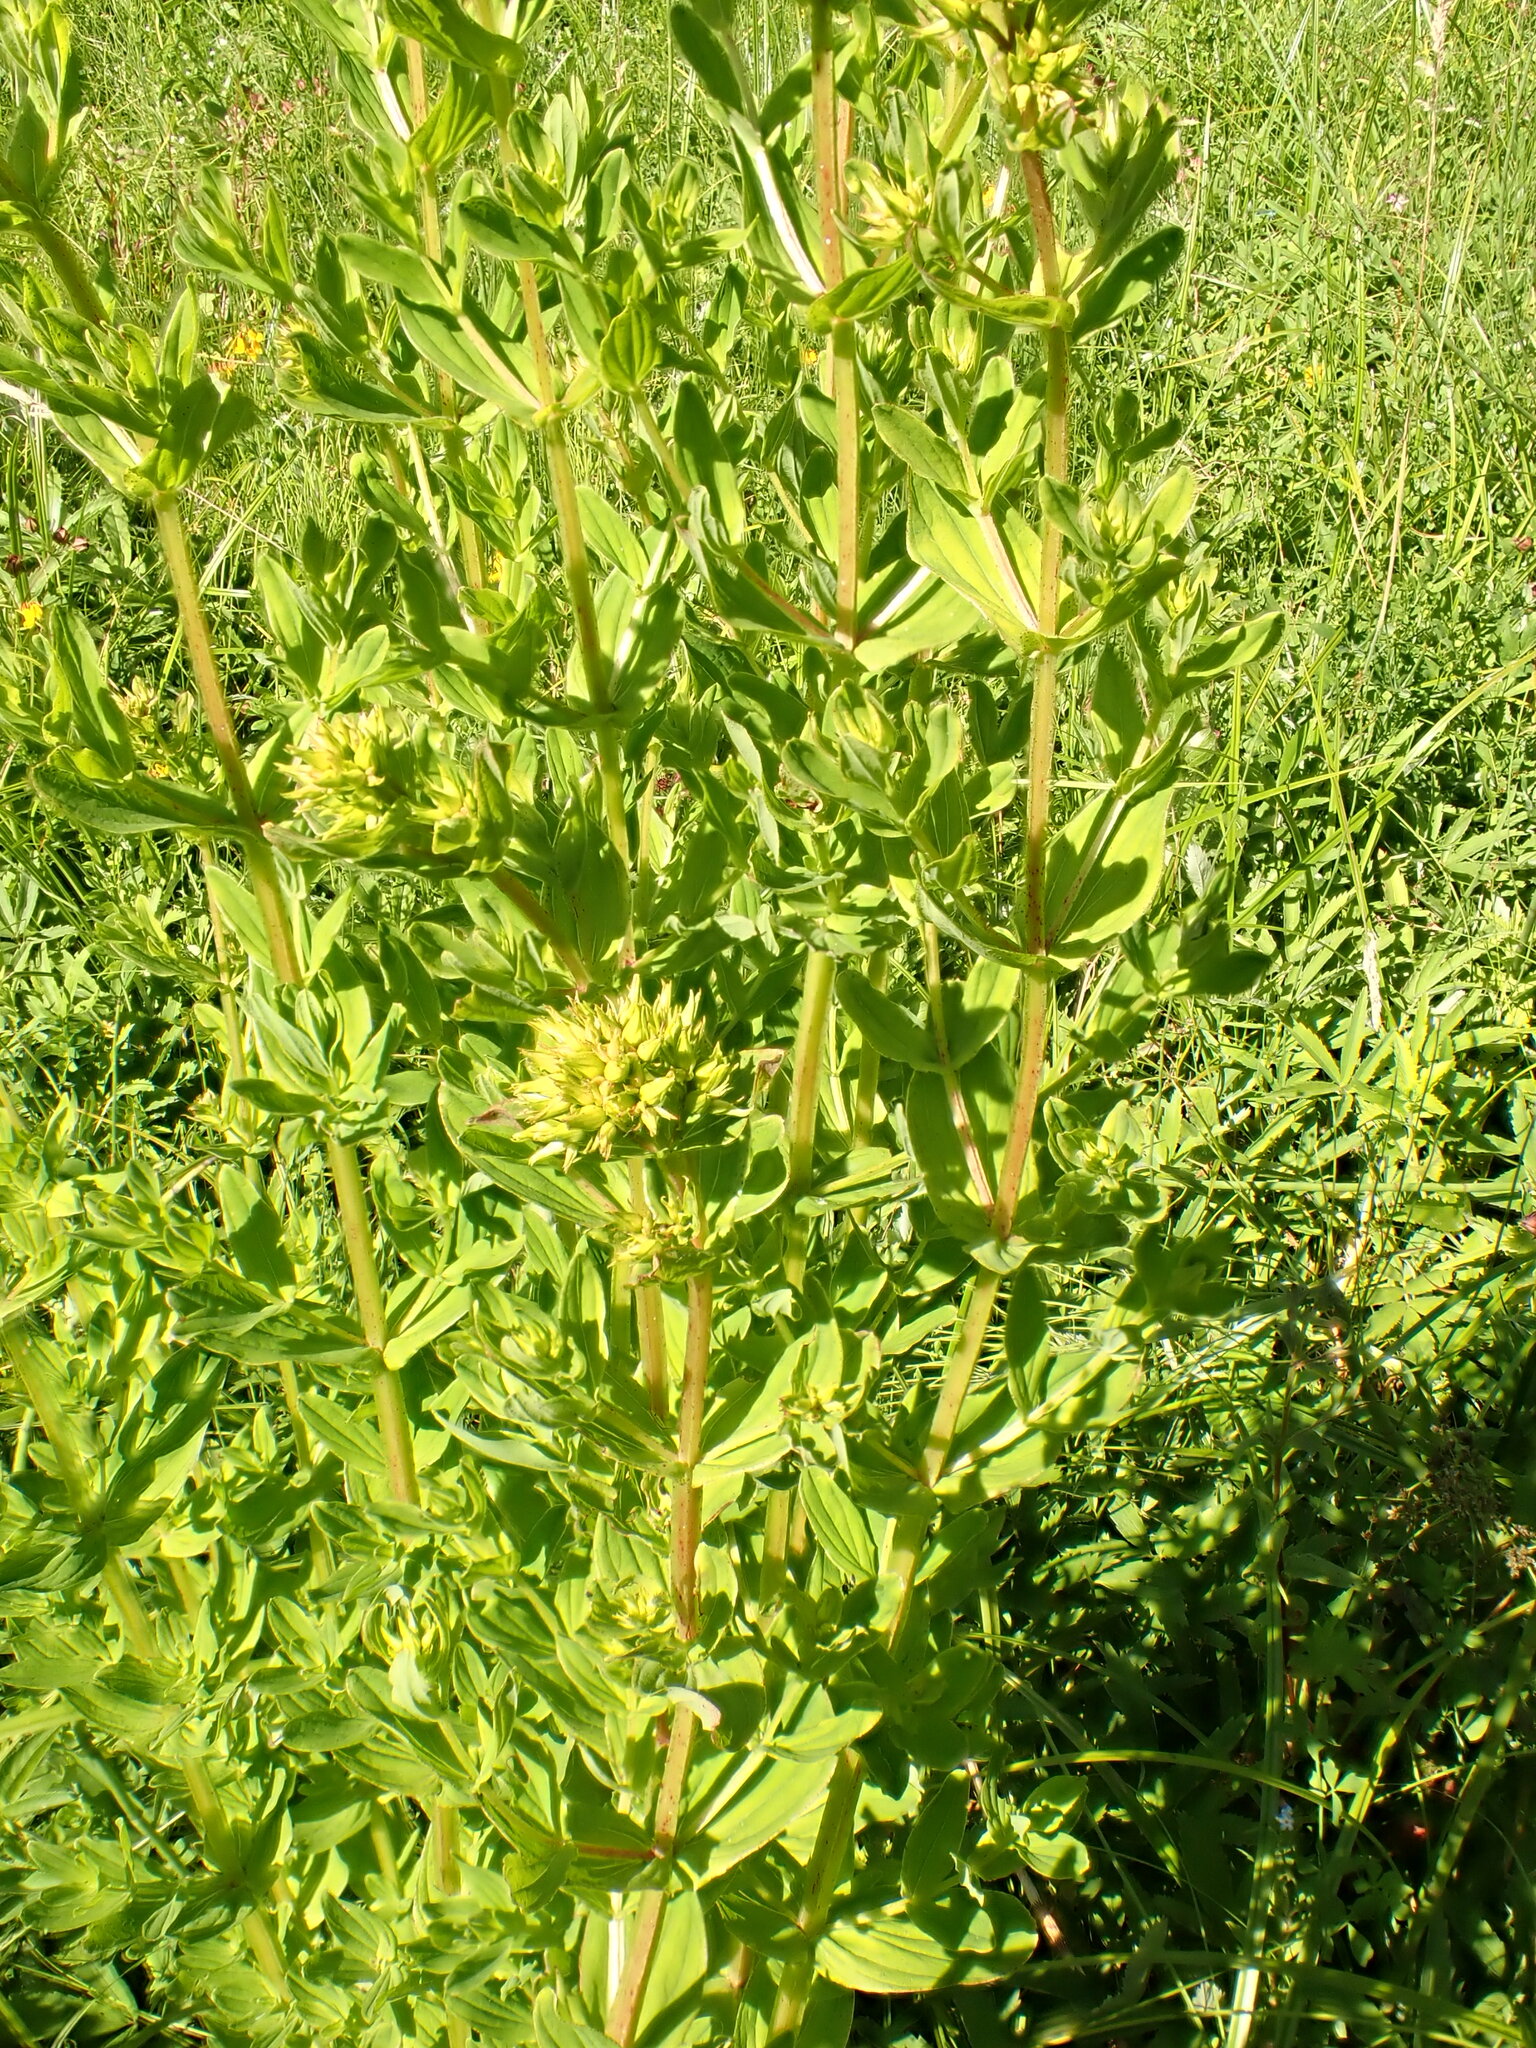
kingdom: Plantae
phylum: Tracheophyta
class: Magnoliopsida
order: Malpighiales
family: Hypericaceae
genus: Hypericum
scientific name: Hypericum tetrapterum
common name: Square-stalked st. john's-wort
